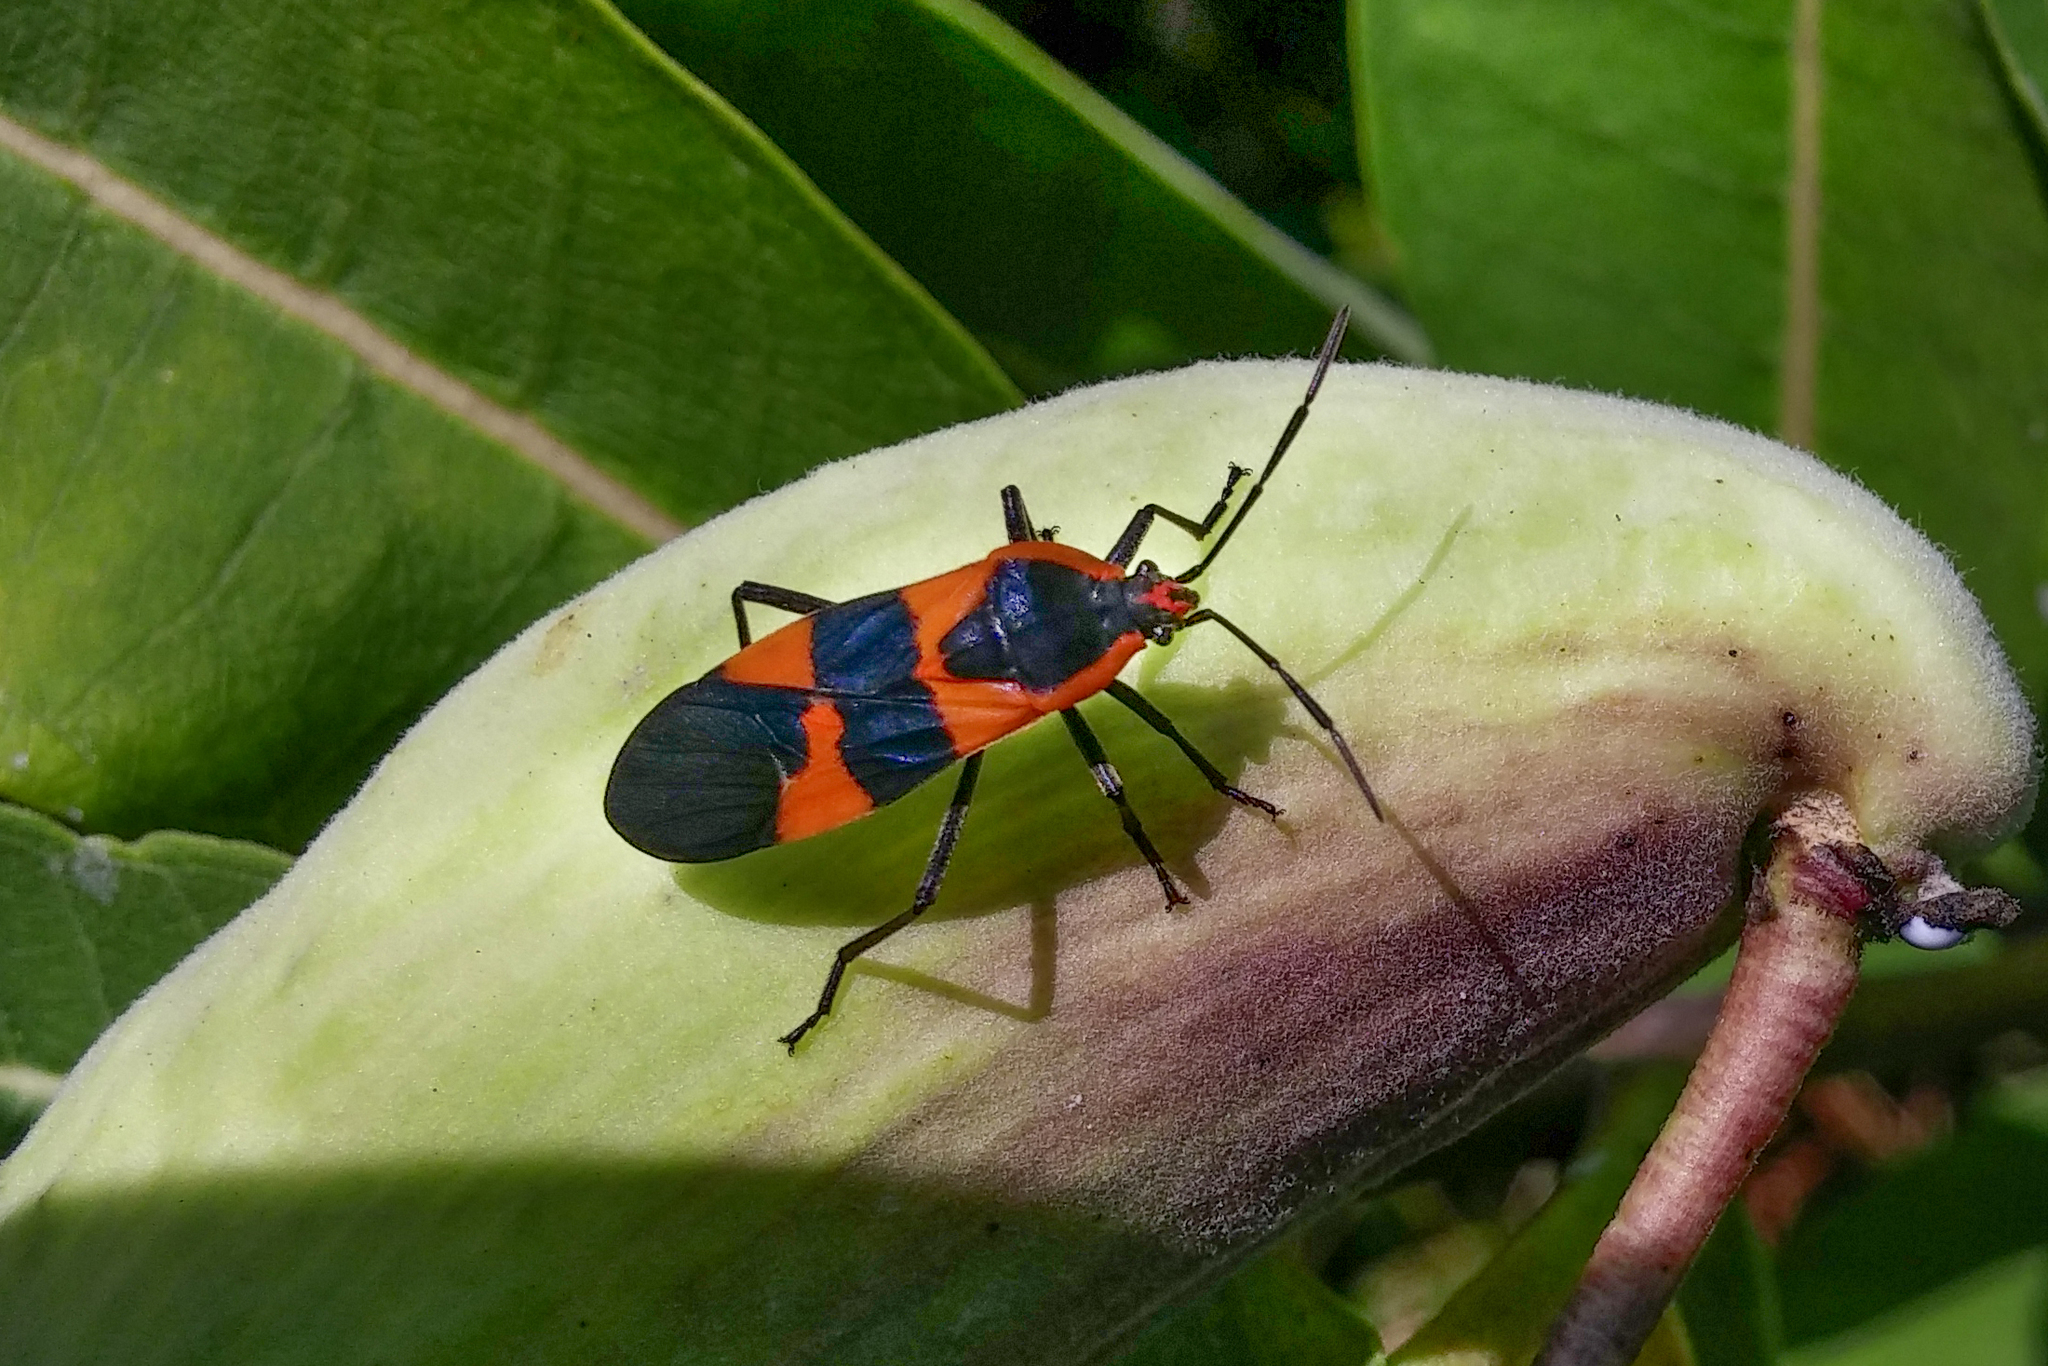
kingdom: Animalia
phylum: Arthropoda
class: Insecta
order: Hemiptera
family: Lygaeidae
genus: Oncopeltus
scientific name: Oncopeltus fasciatus
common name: Large milkweed bug
